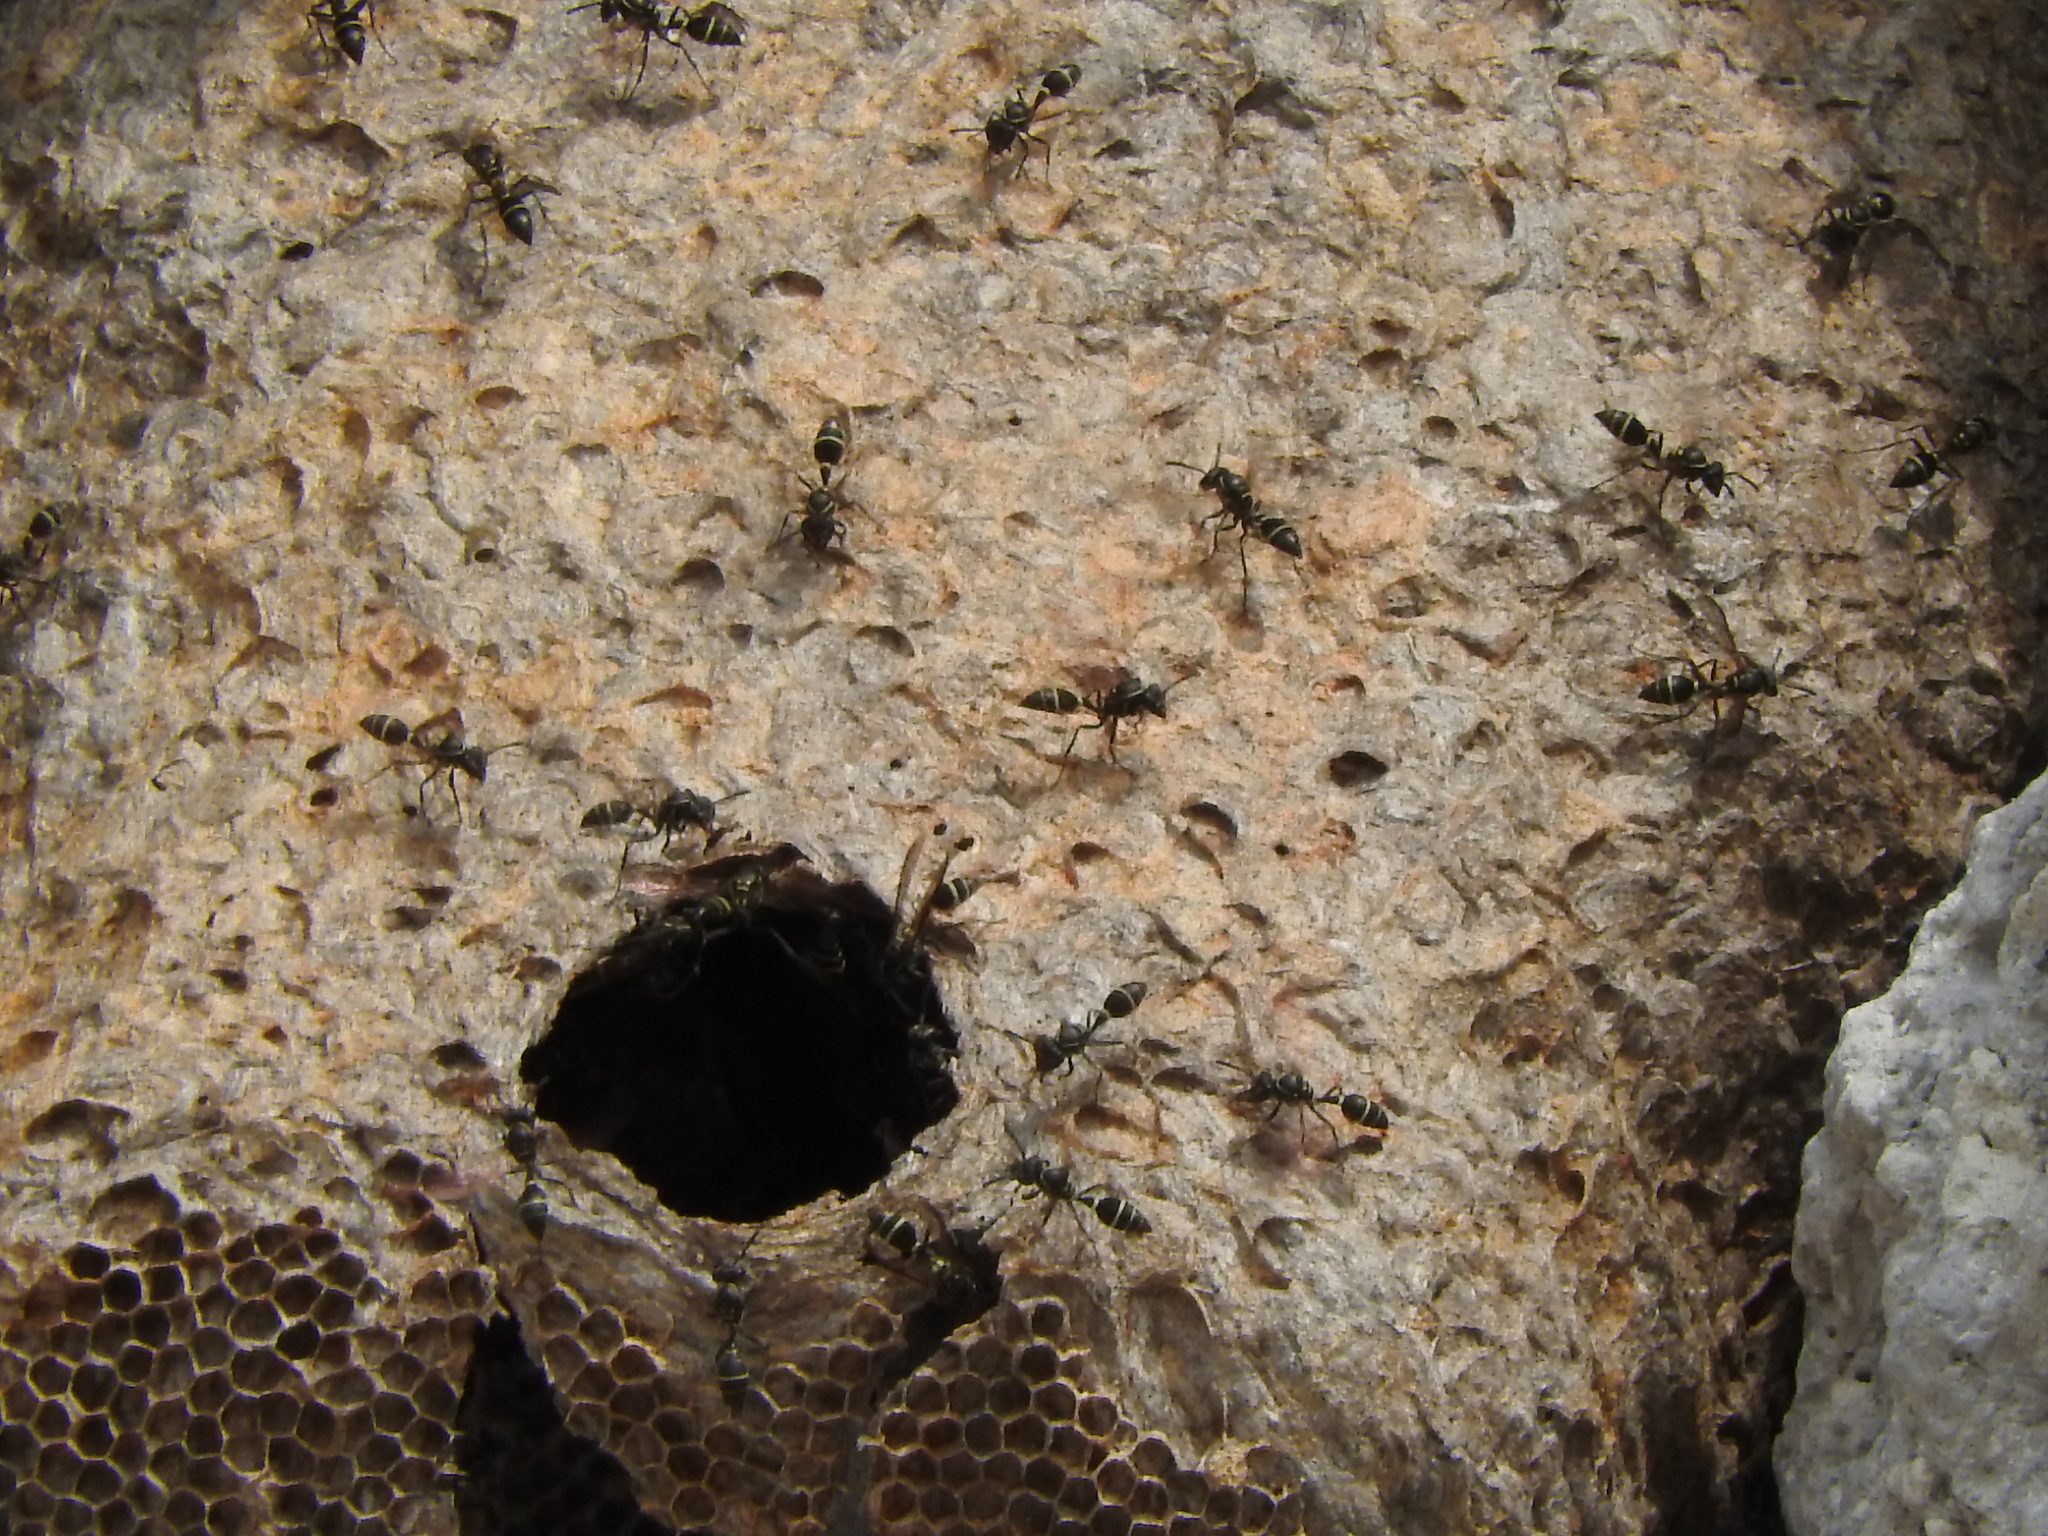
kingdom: Animalia
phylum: Arthropoda
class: Insecta
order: Hymenoptera
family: Eumenidae
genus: Polybia
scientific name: Polybia plebeja
